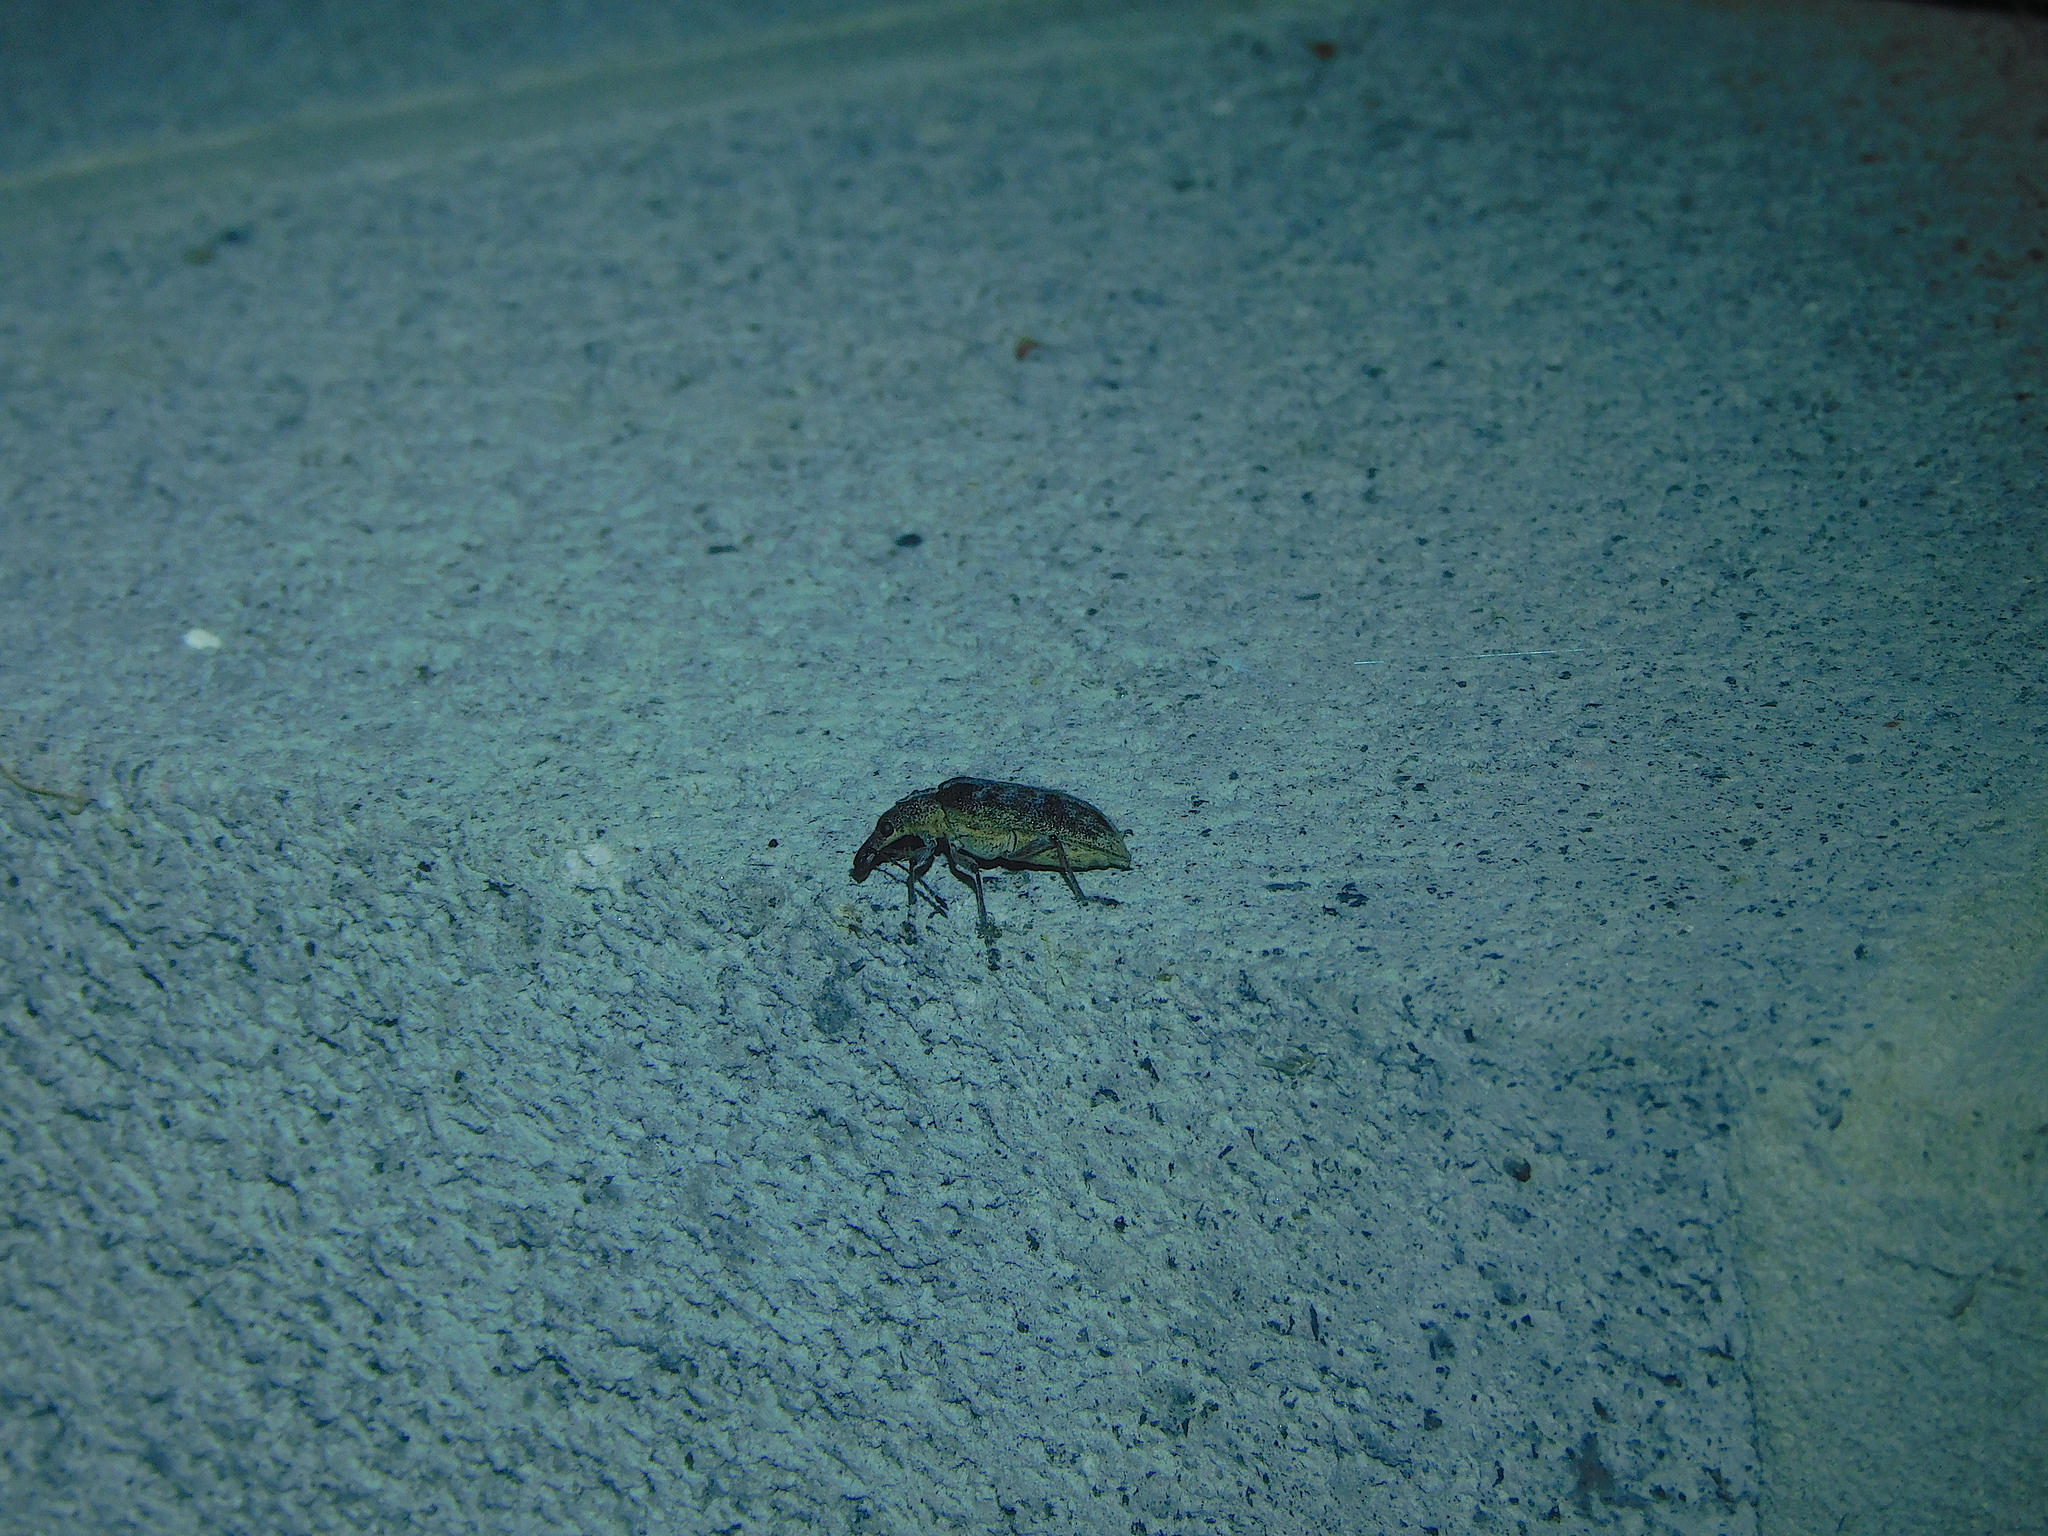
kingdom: Animalia
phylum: Arthropoda
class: Insecta
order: Coleoptera
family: Belidae
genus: Pachyura
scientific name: Pachyura australis
